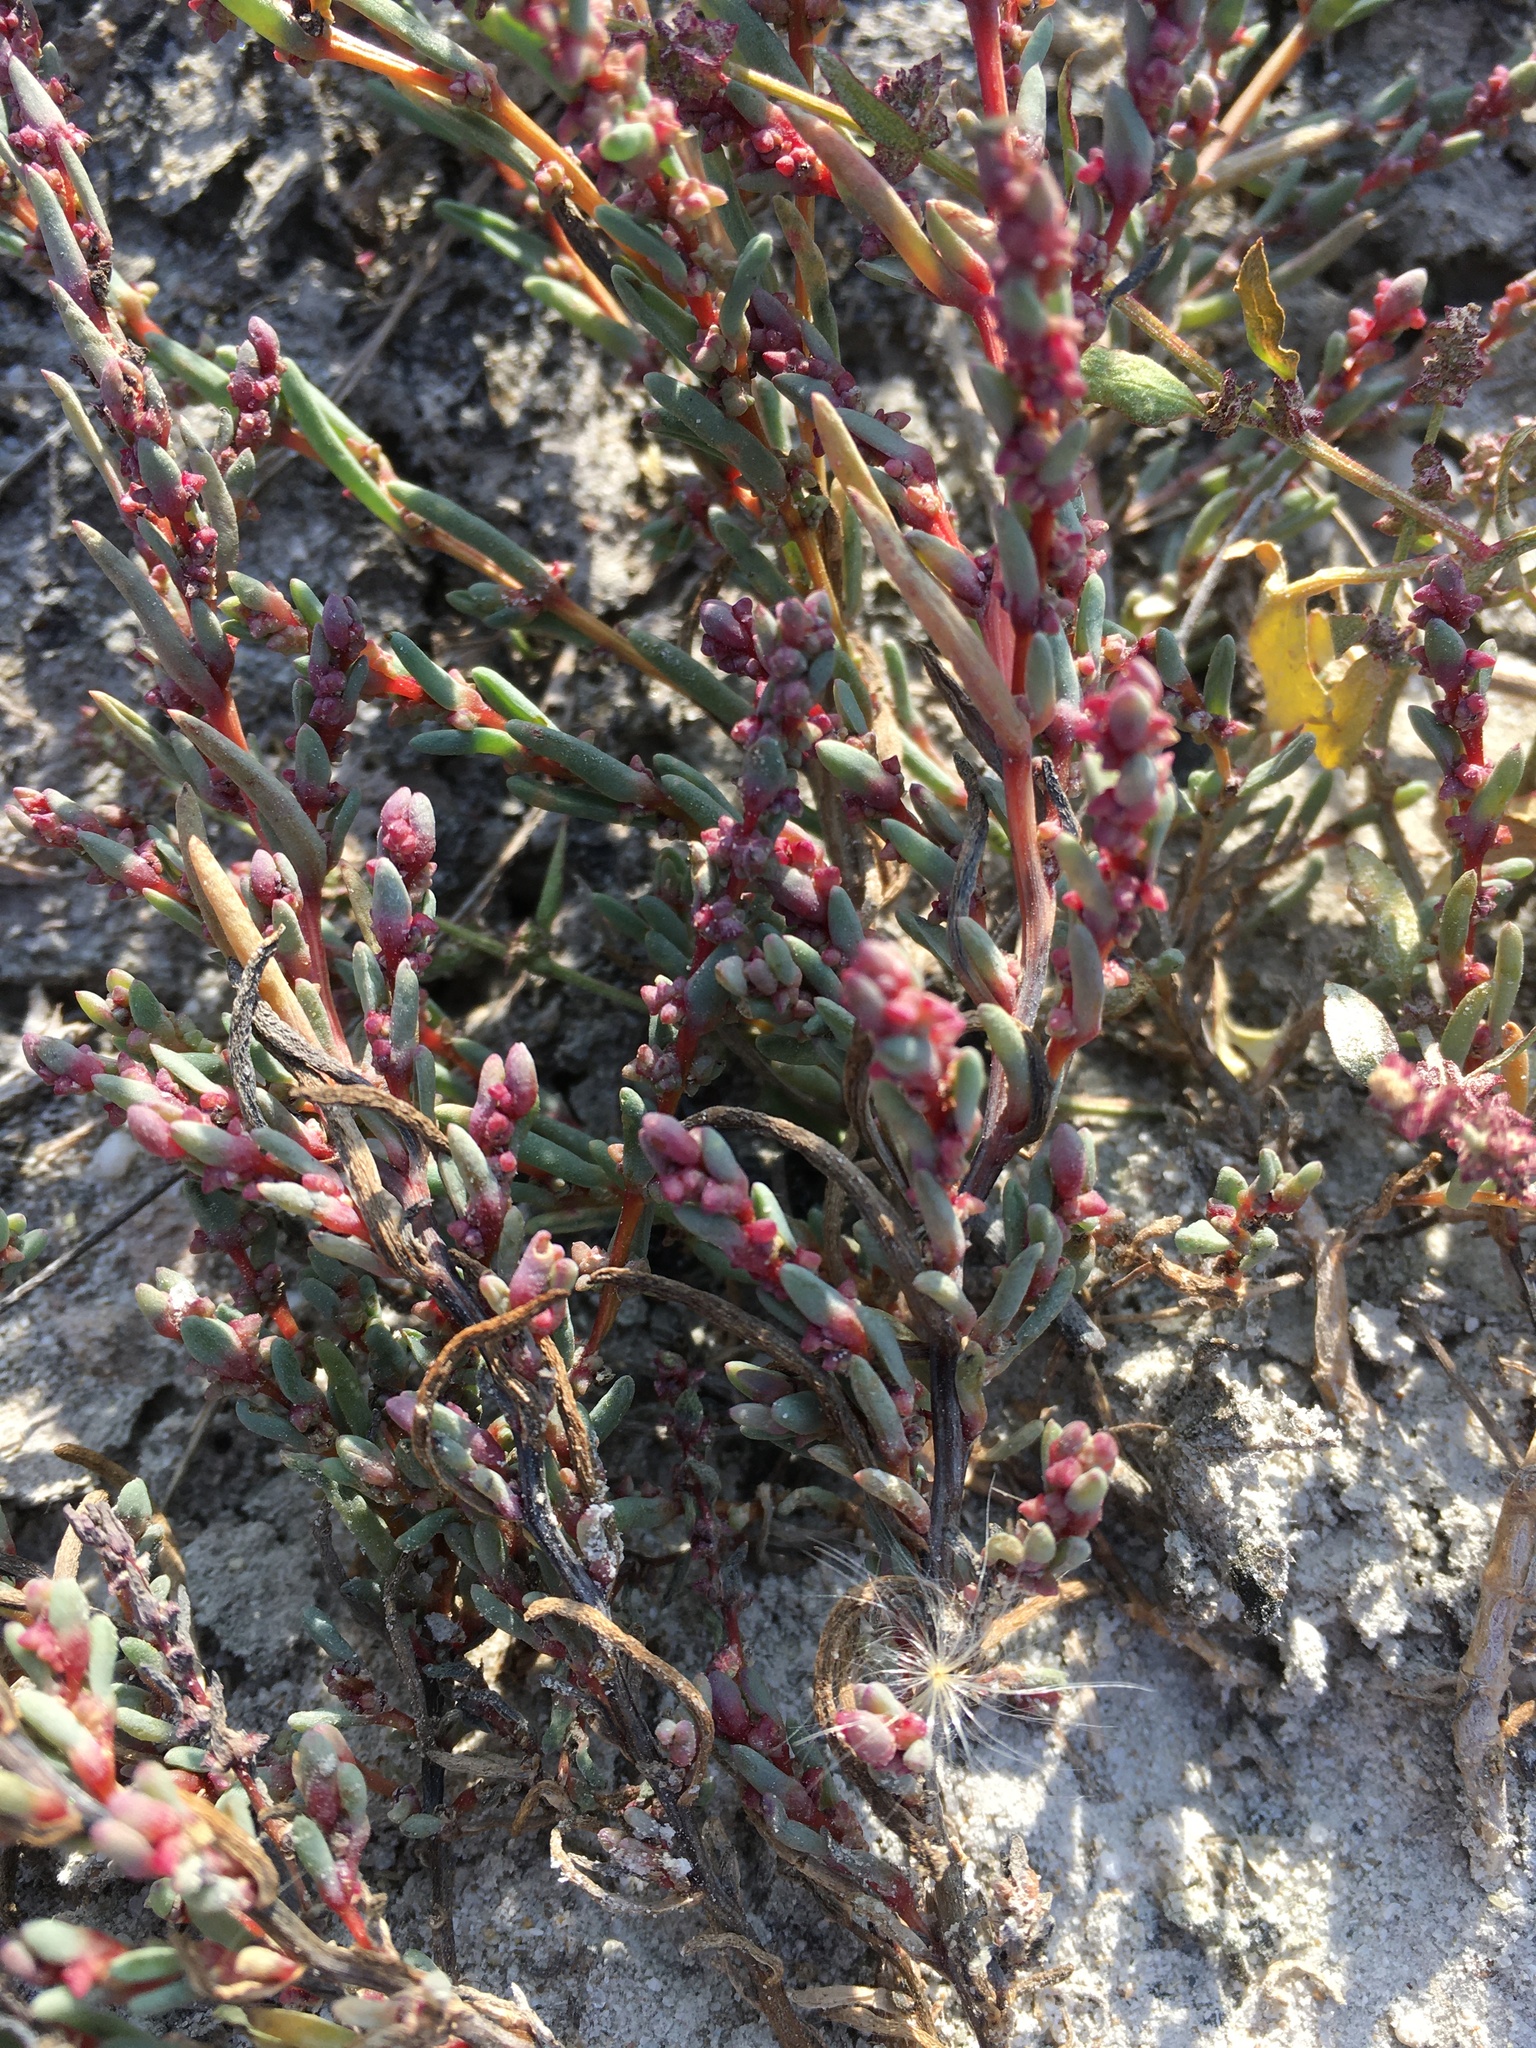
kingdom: Plantae
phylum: Tracheophyta
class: Magnoliopsida
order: Caryophyllales
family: Amaranthaceae
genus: Suaeda
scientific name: Suaeda pannonica
